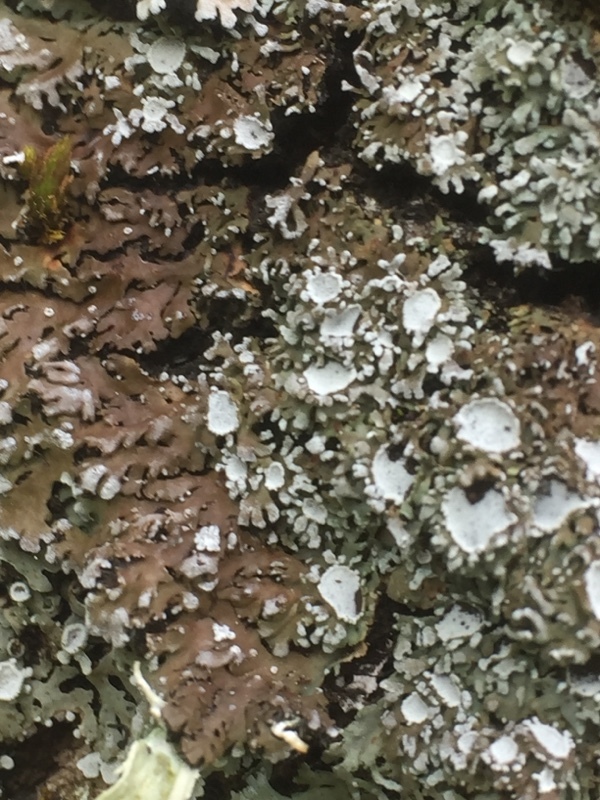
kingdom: Fungi
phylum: Ascomycota
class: Lecanoromycetes
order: Caliciales
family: Physciaceae
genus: Physconia
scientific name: Physconia distorta
